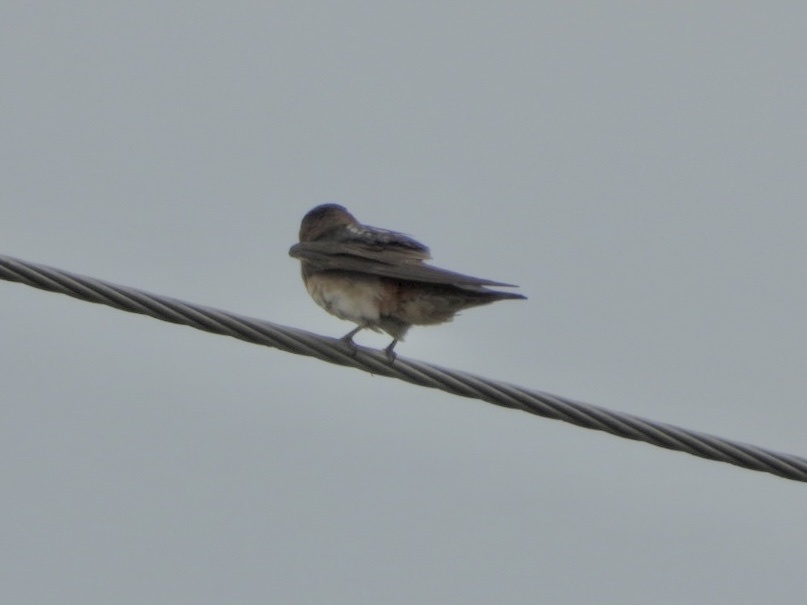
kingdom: Animalia
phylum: Chordata
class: Aves
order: Passeriformes
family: Hirundinidae
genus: Petrochelidon
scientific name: Petrochelidon pyrrhonota
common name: American cliff swallow
